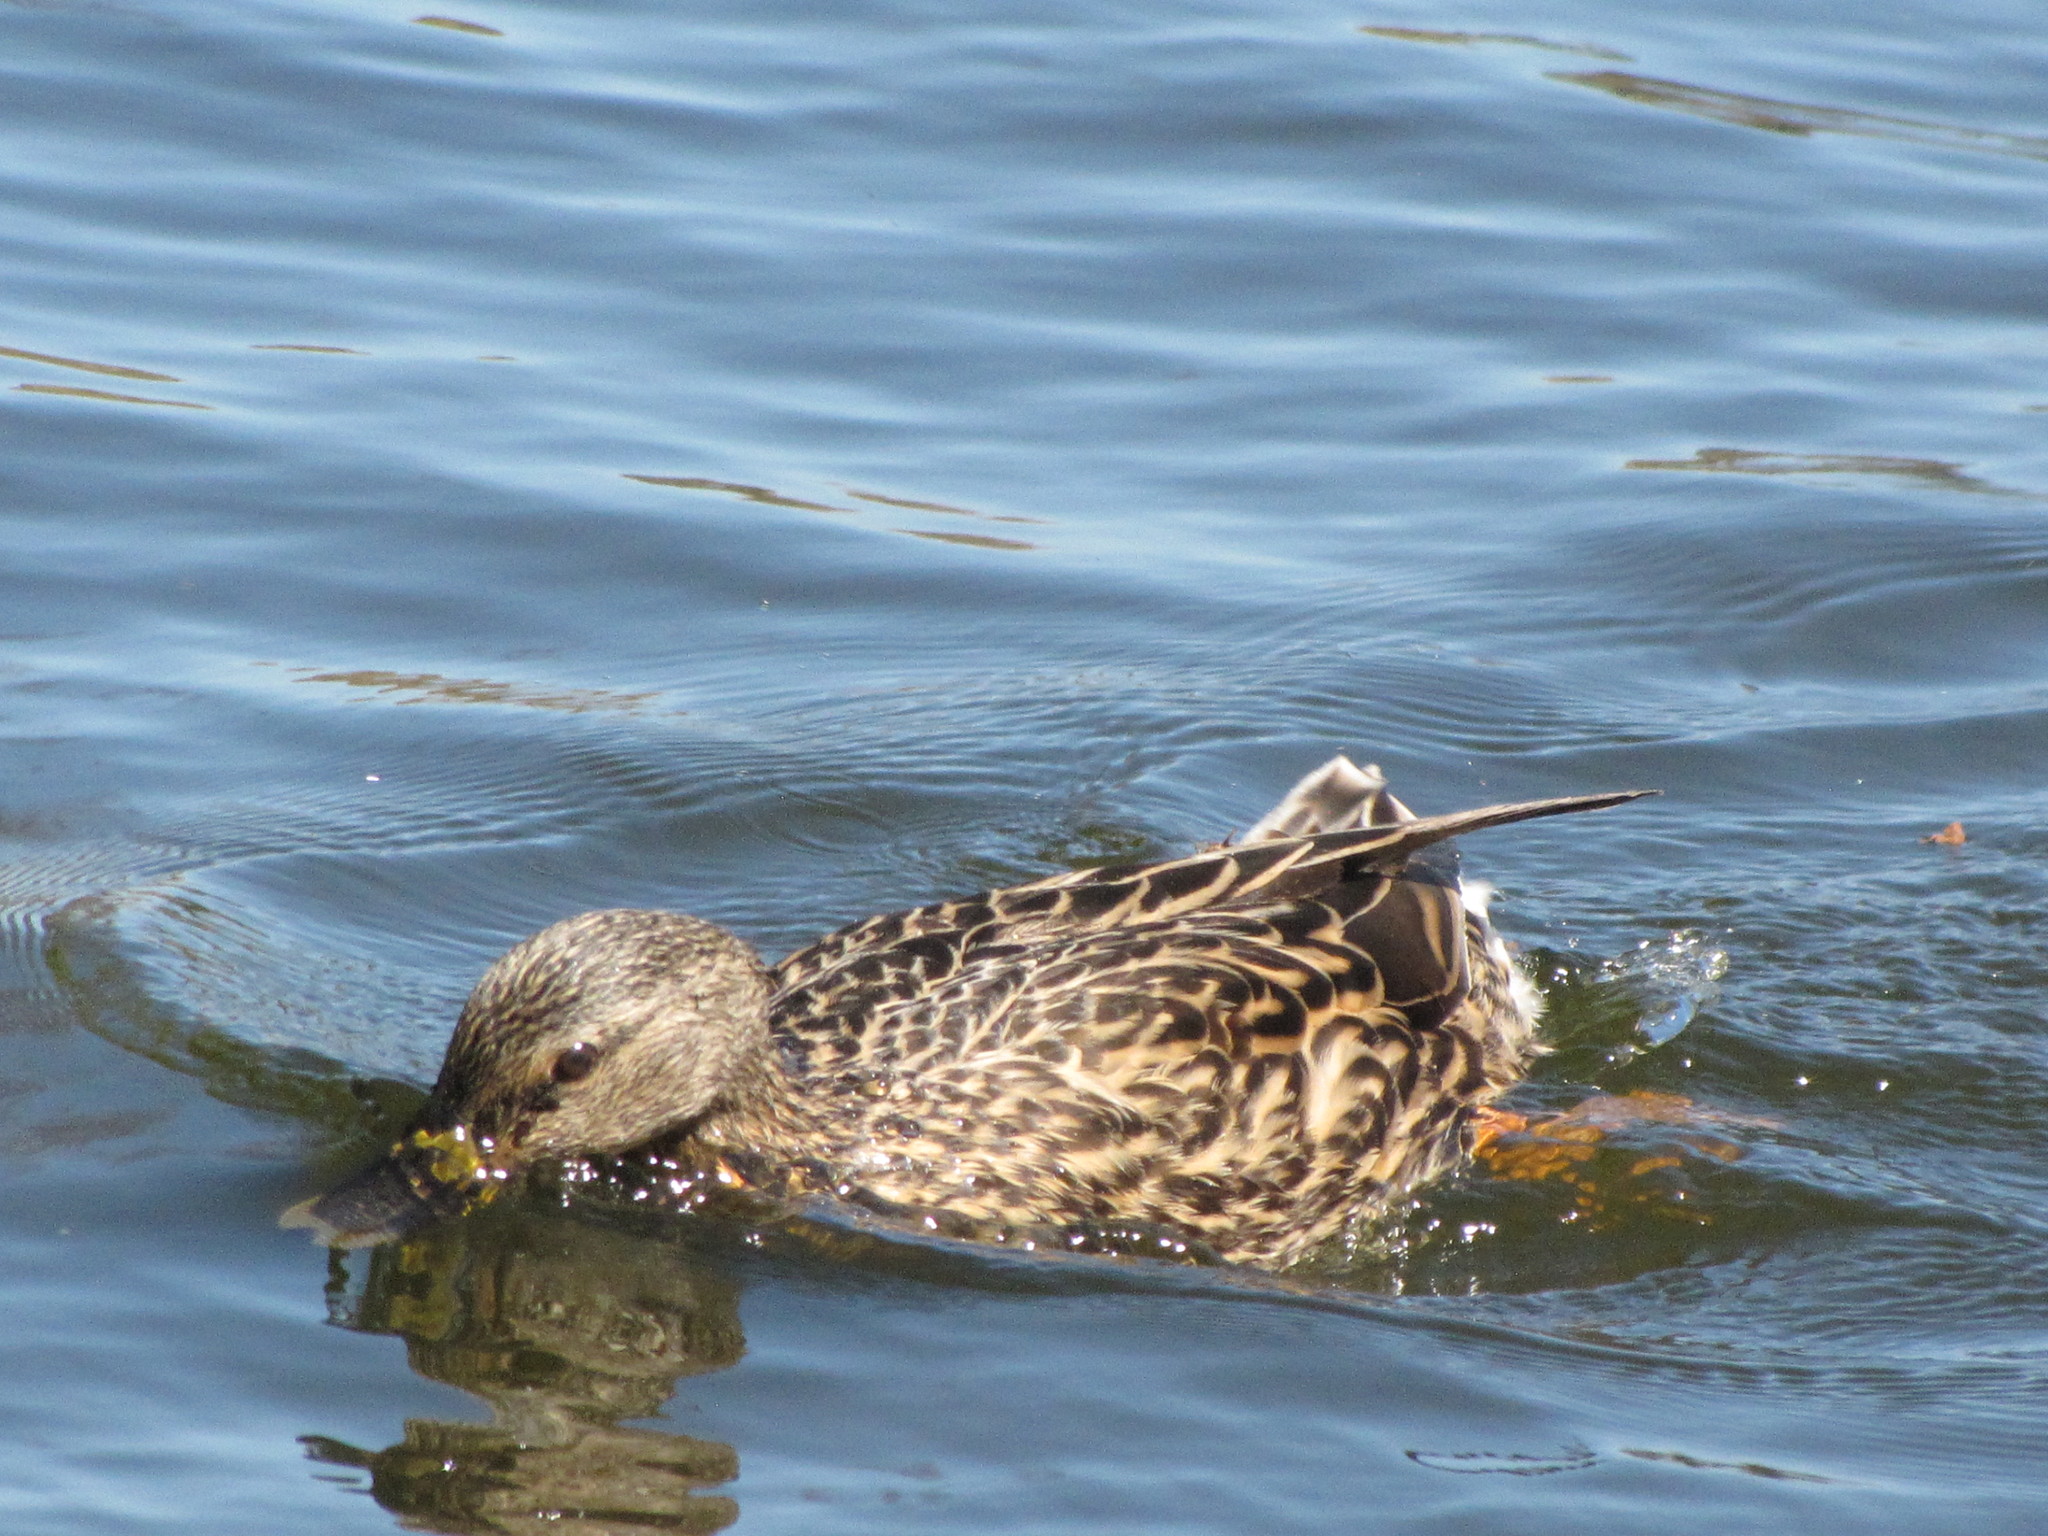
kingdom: Animalia
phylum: Chordata
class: Aves
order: Anseriformes
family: Anatidae
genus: Anas
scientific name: Anas platyrhynchos
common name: Mallard
